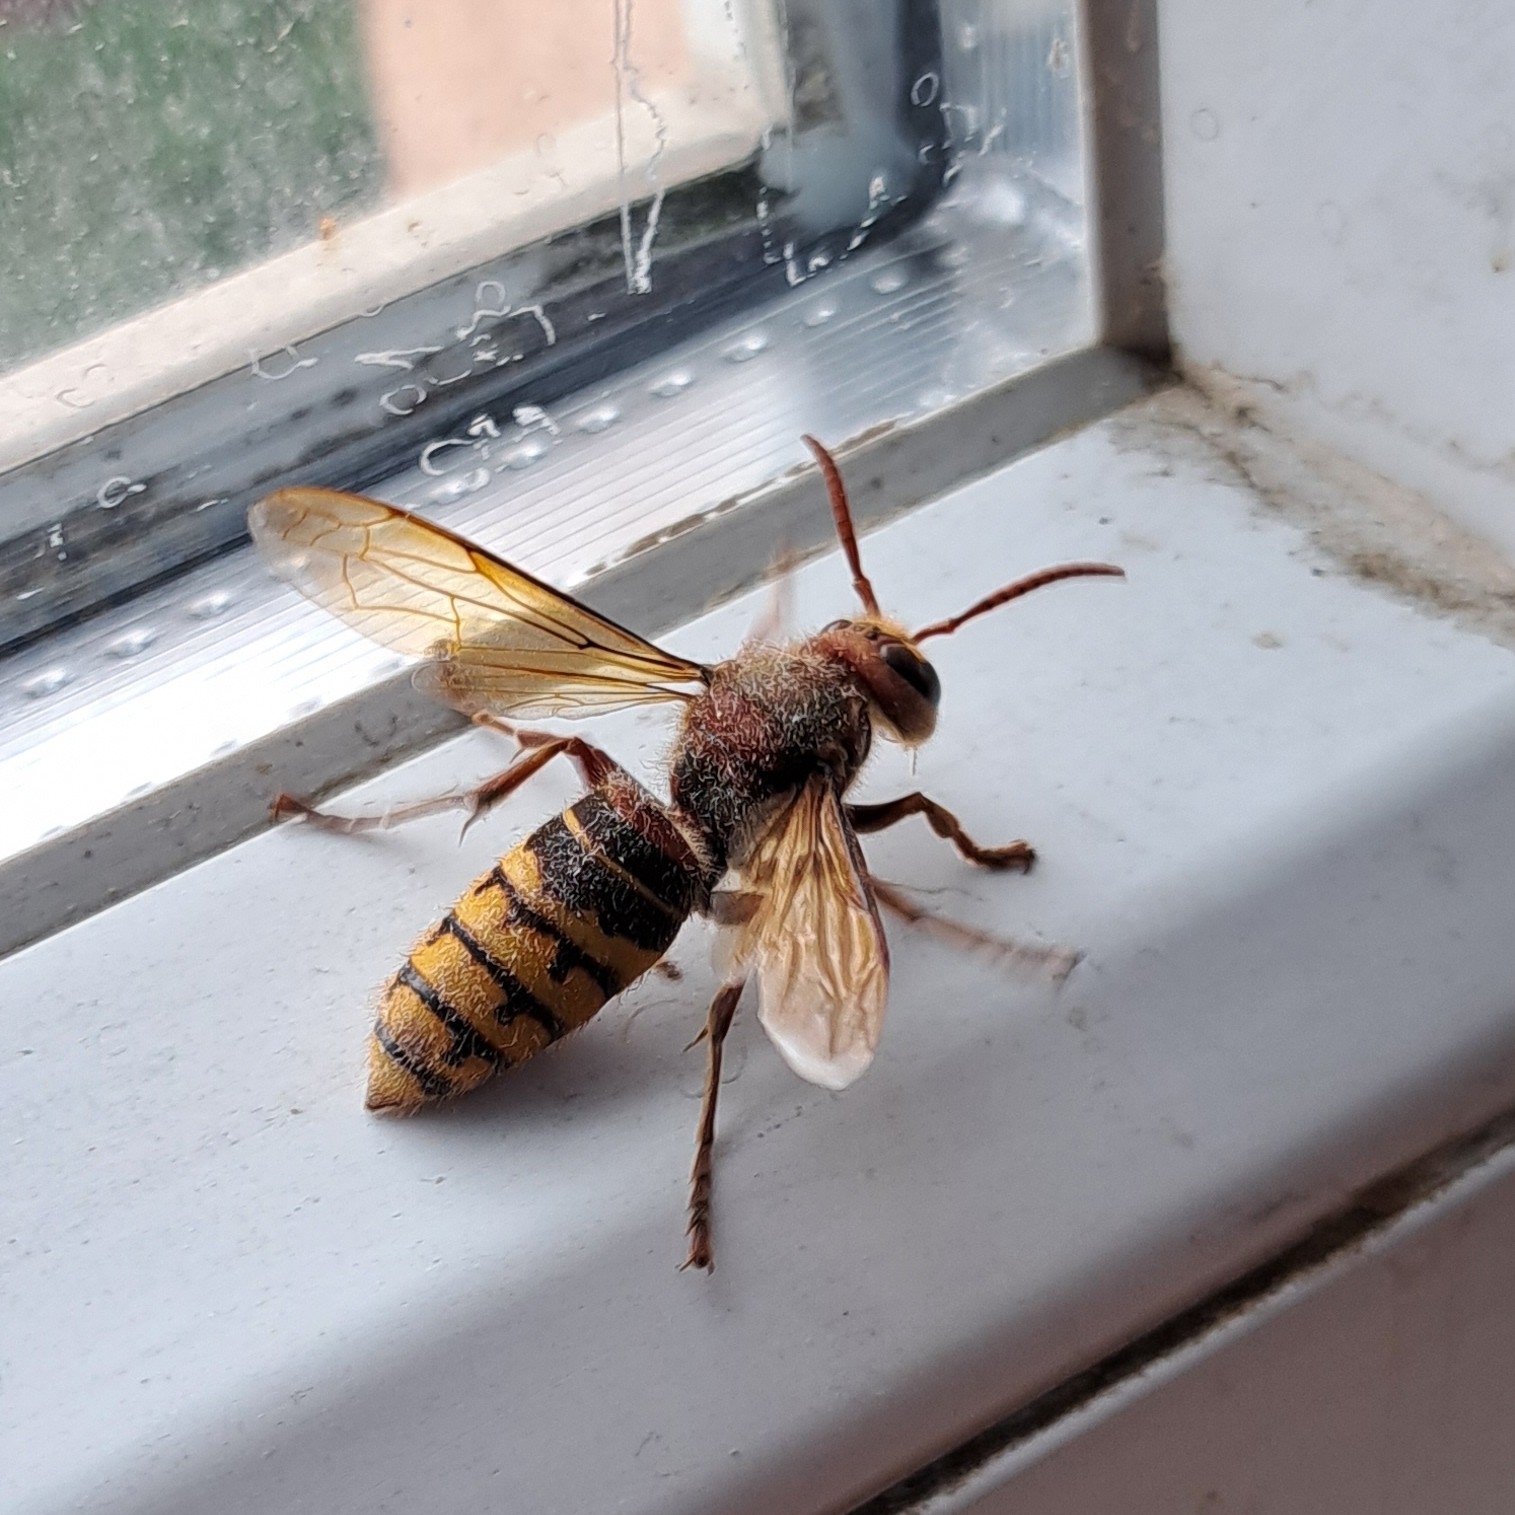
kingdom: Animalia
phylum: Arthropoda
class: Insecta
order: Hymenoptera
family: Vespidae
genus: Vespa
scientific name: Vespa crabro
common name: Hornet
